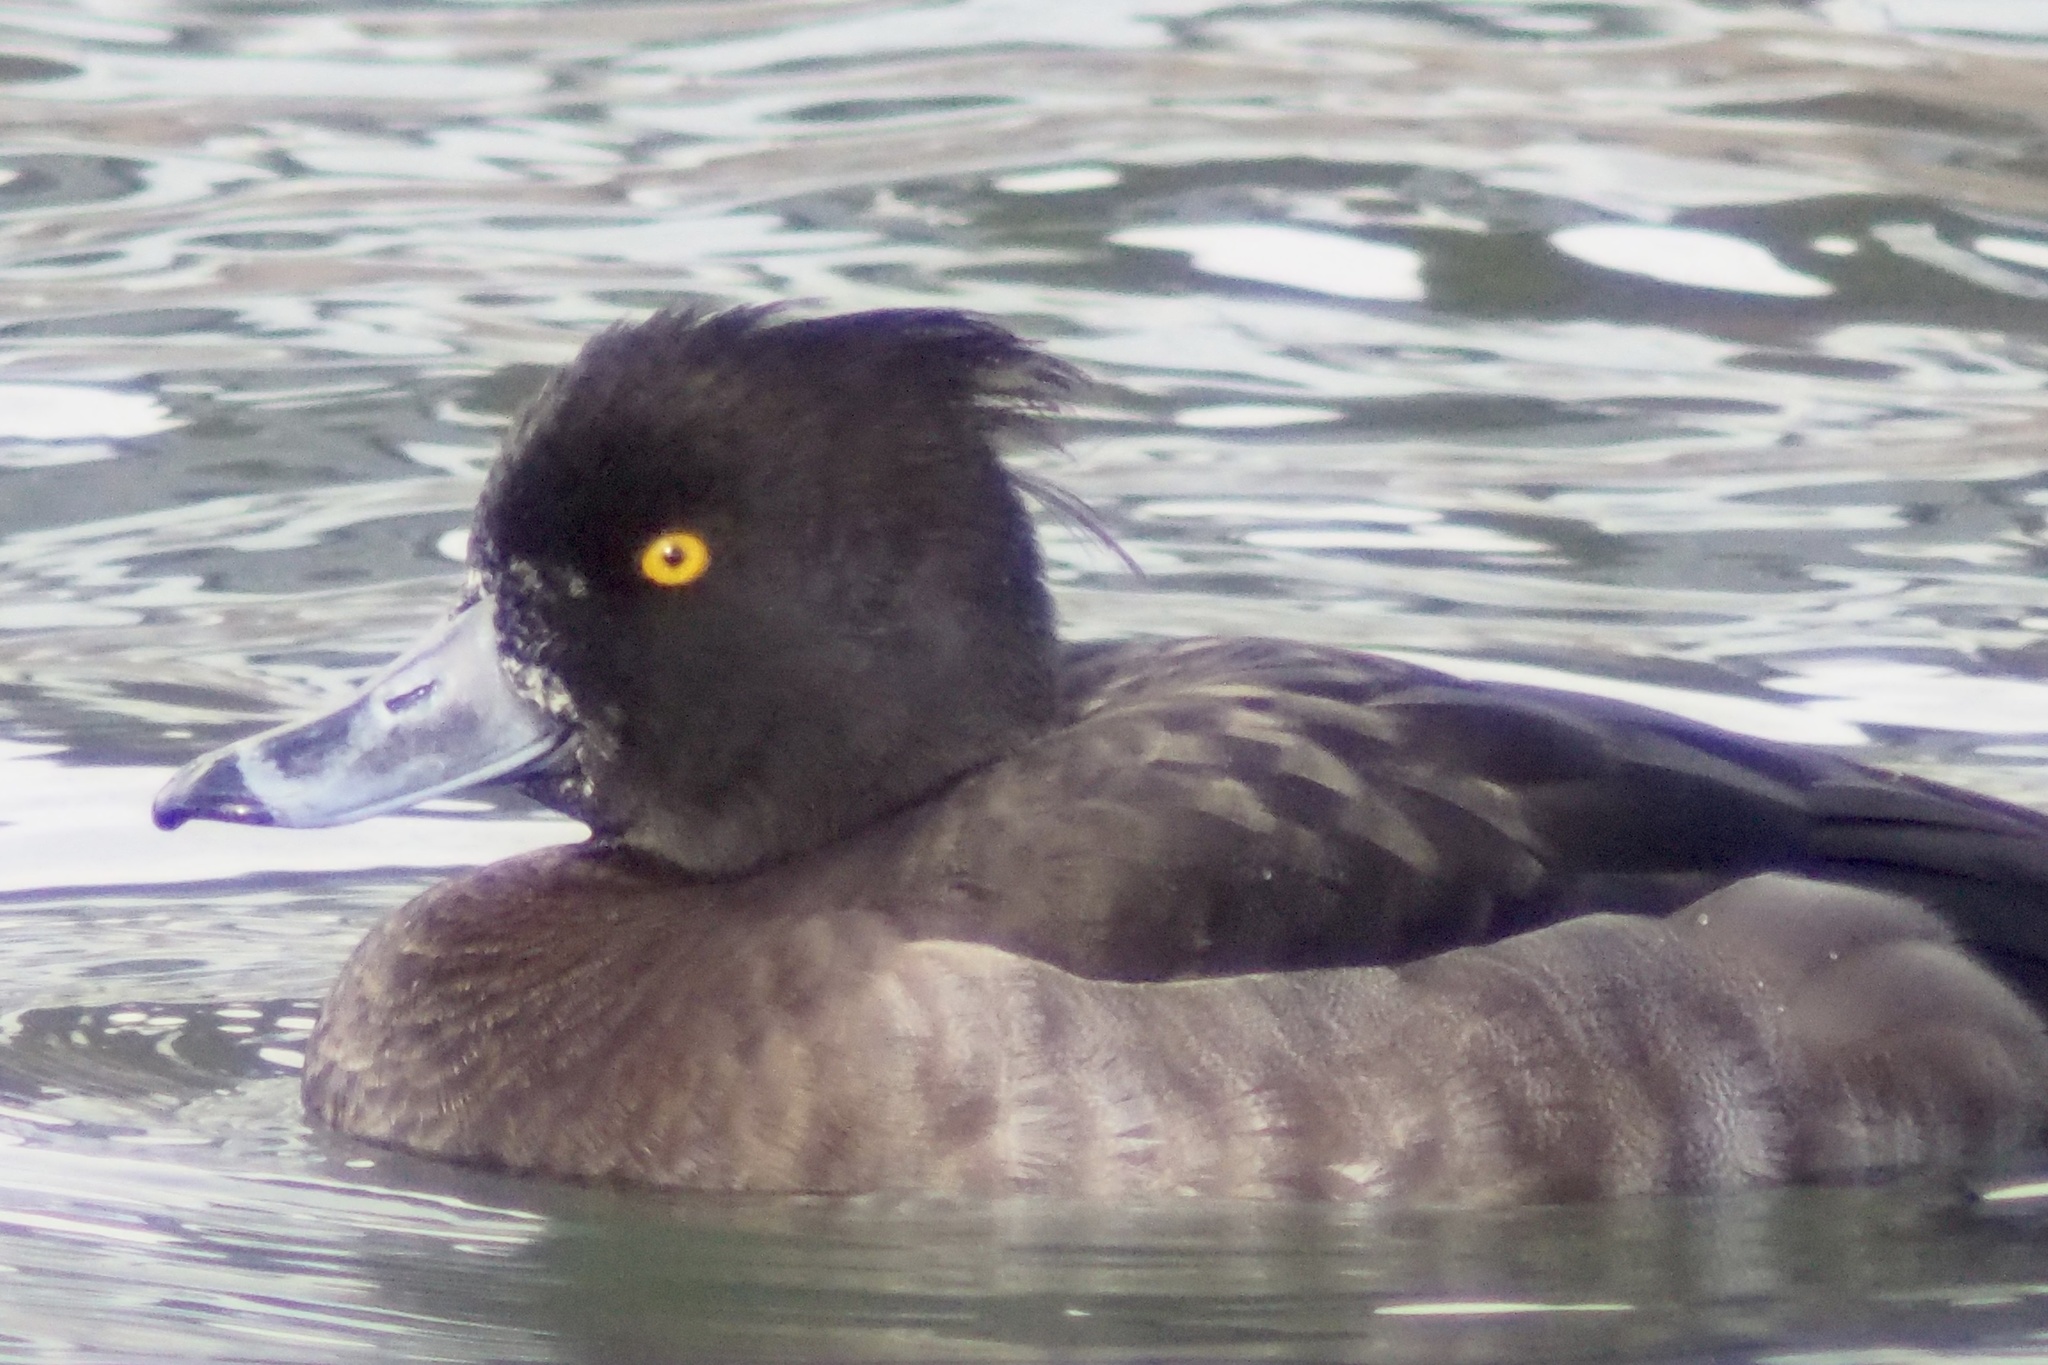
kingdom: Animalia
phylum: Chordata
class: Aves
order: Anseriformes
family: Anatidae
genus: Aythya
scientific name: Aythya fuligula
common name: Tufted duck
